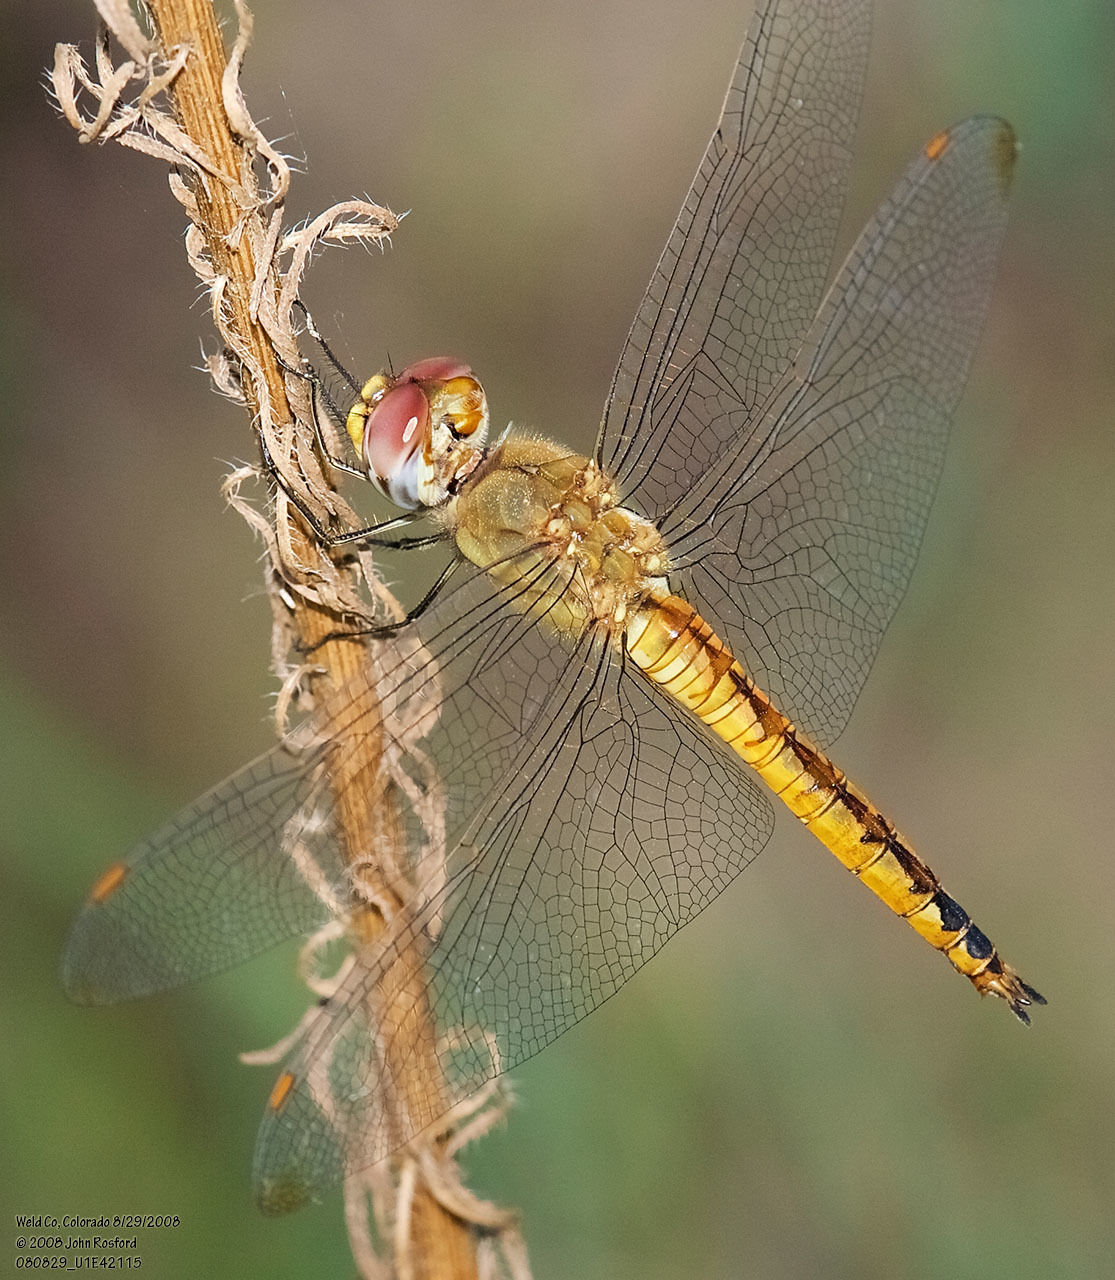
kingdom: Animalia
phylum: Arthropoda
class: Insecta
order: Odonata
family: Libellulidae
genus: Pantala
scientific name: Pantala flavescens
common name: Wandering glider
